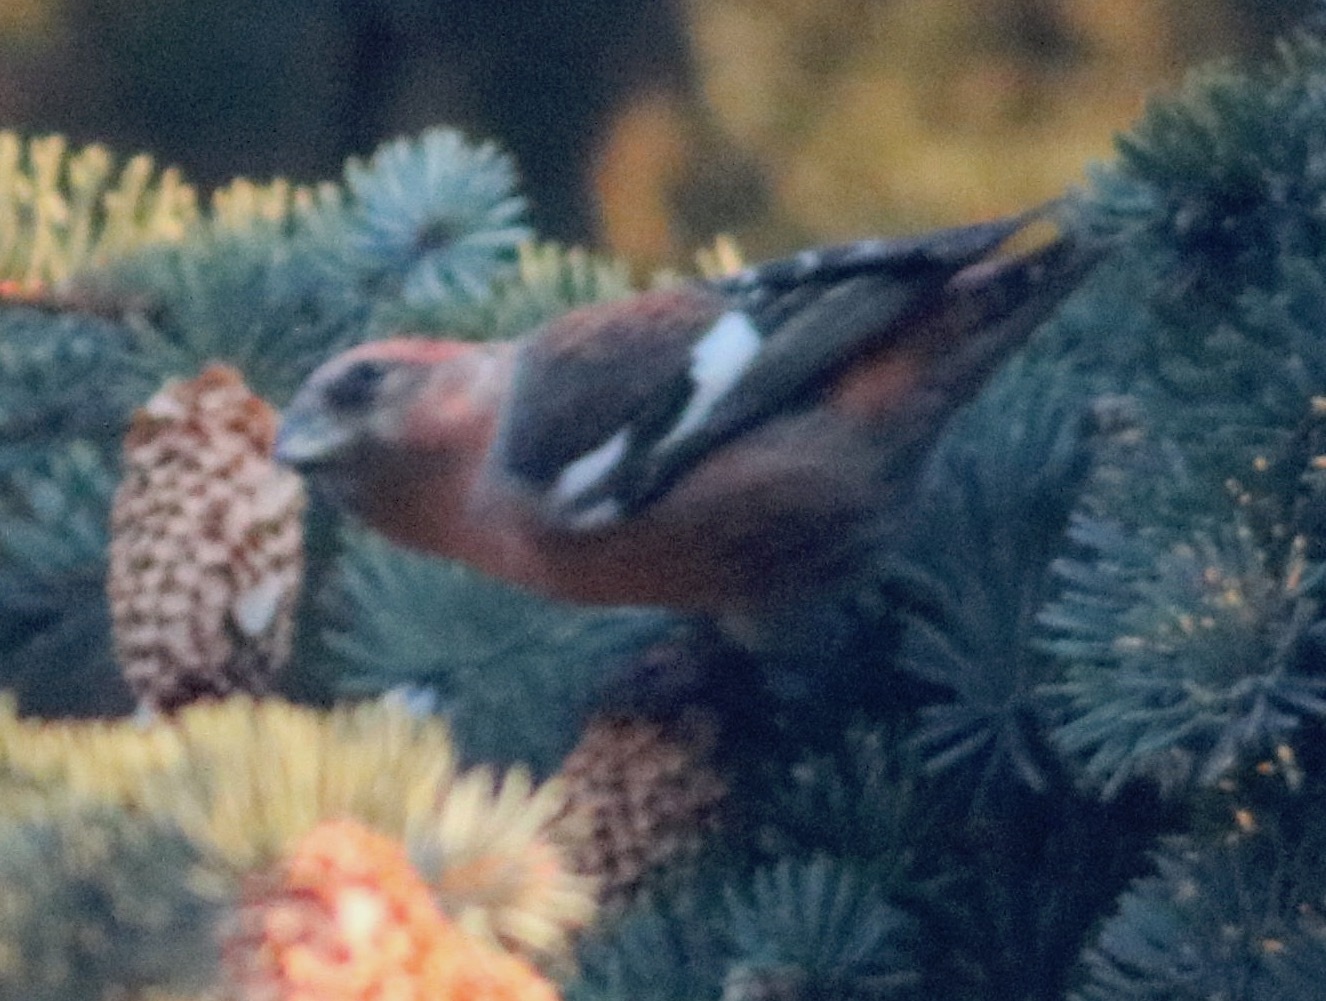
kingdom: Animalia
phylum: Chordata
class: Aves
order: Passeriformes
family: Fringillidae
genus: Loxia
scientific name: Loxia leucoptera
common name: Two-barred crossbill
